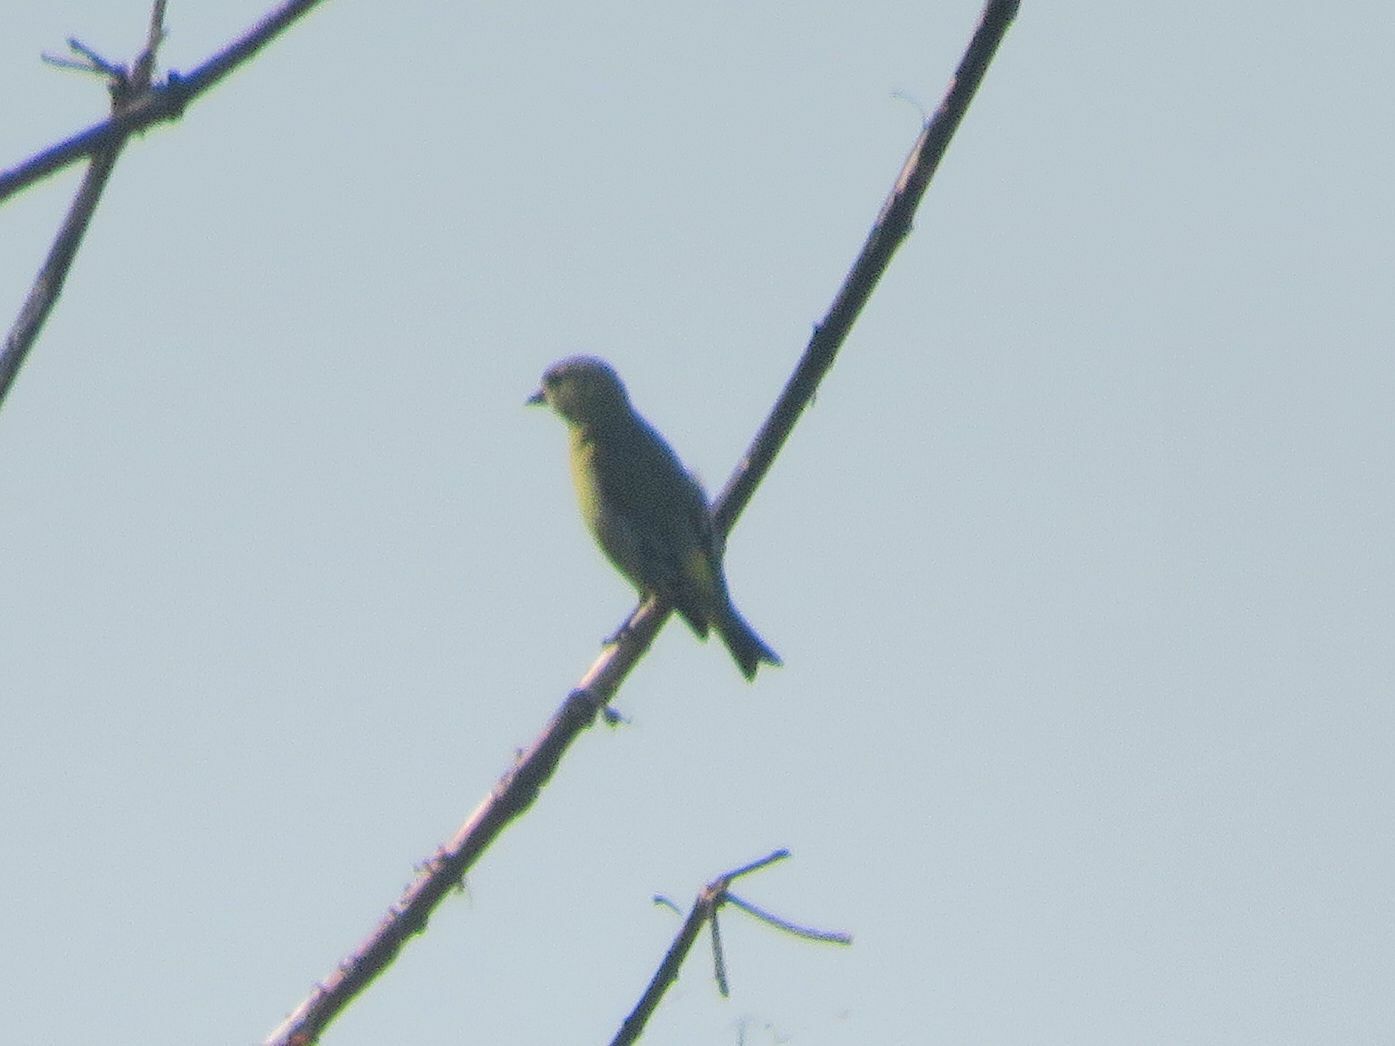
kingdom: Animalia
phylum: Chordata
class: Aves
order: Passeriformes
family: Fringillidae
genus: Spinus
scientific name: Spinus magellanicus
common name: Hooded siskin
